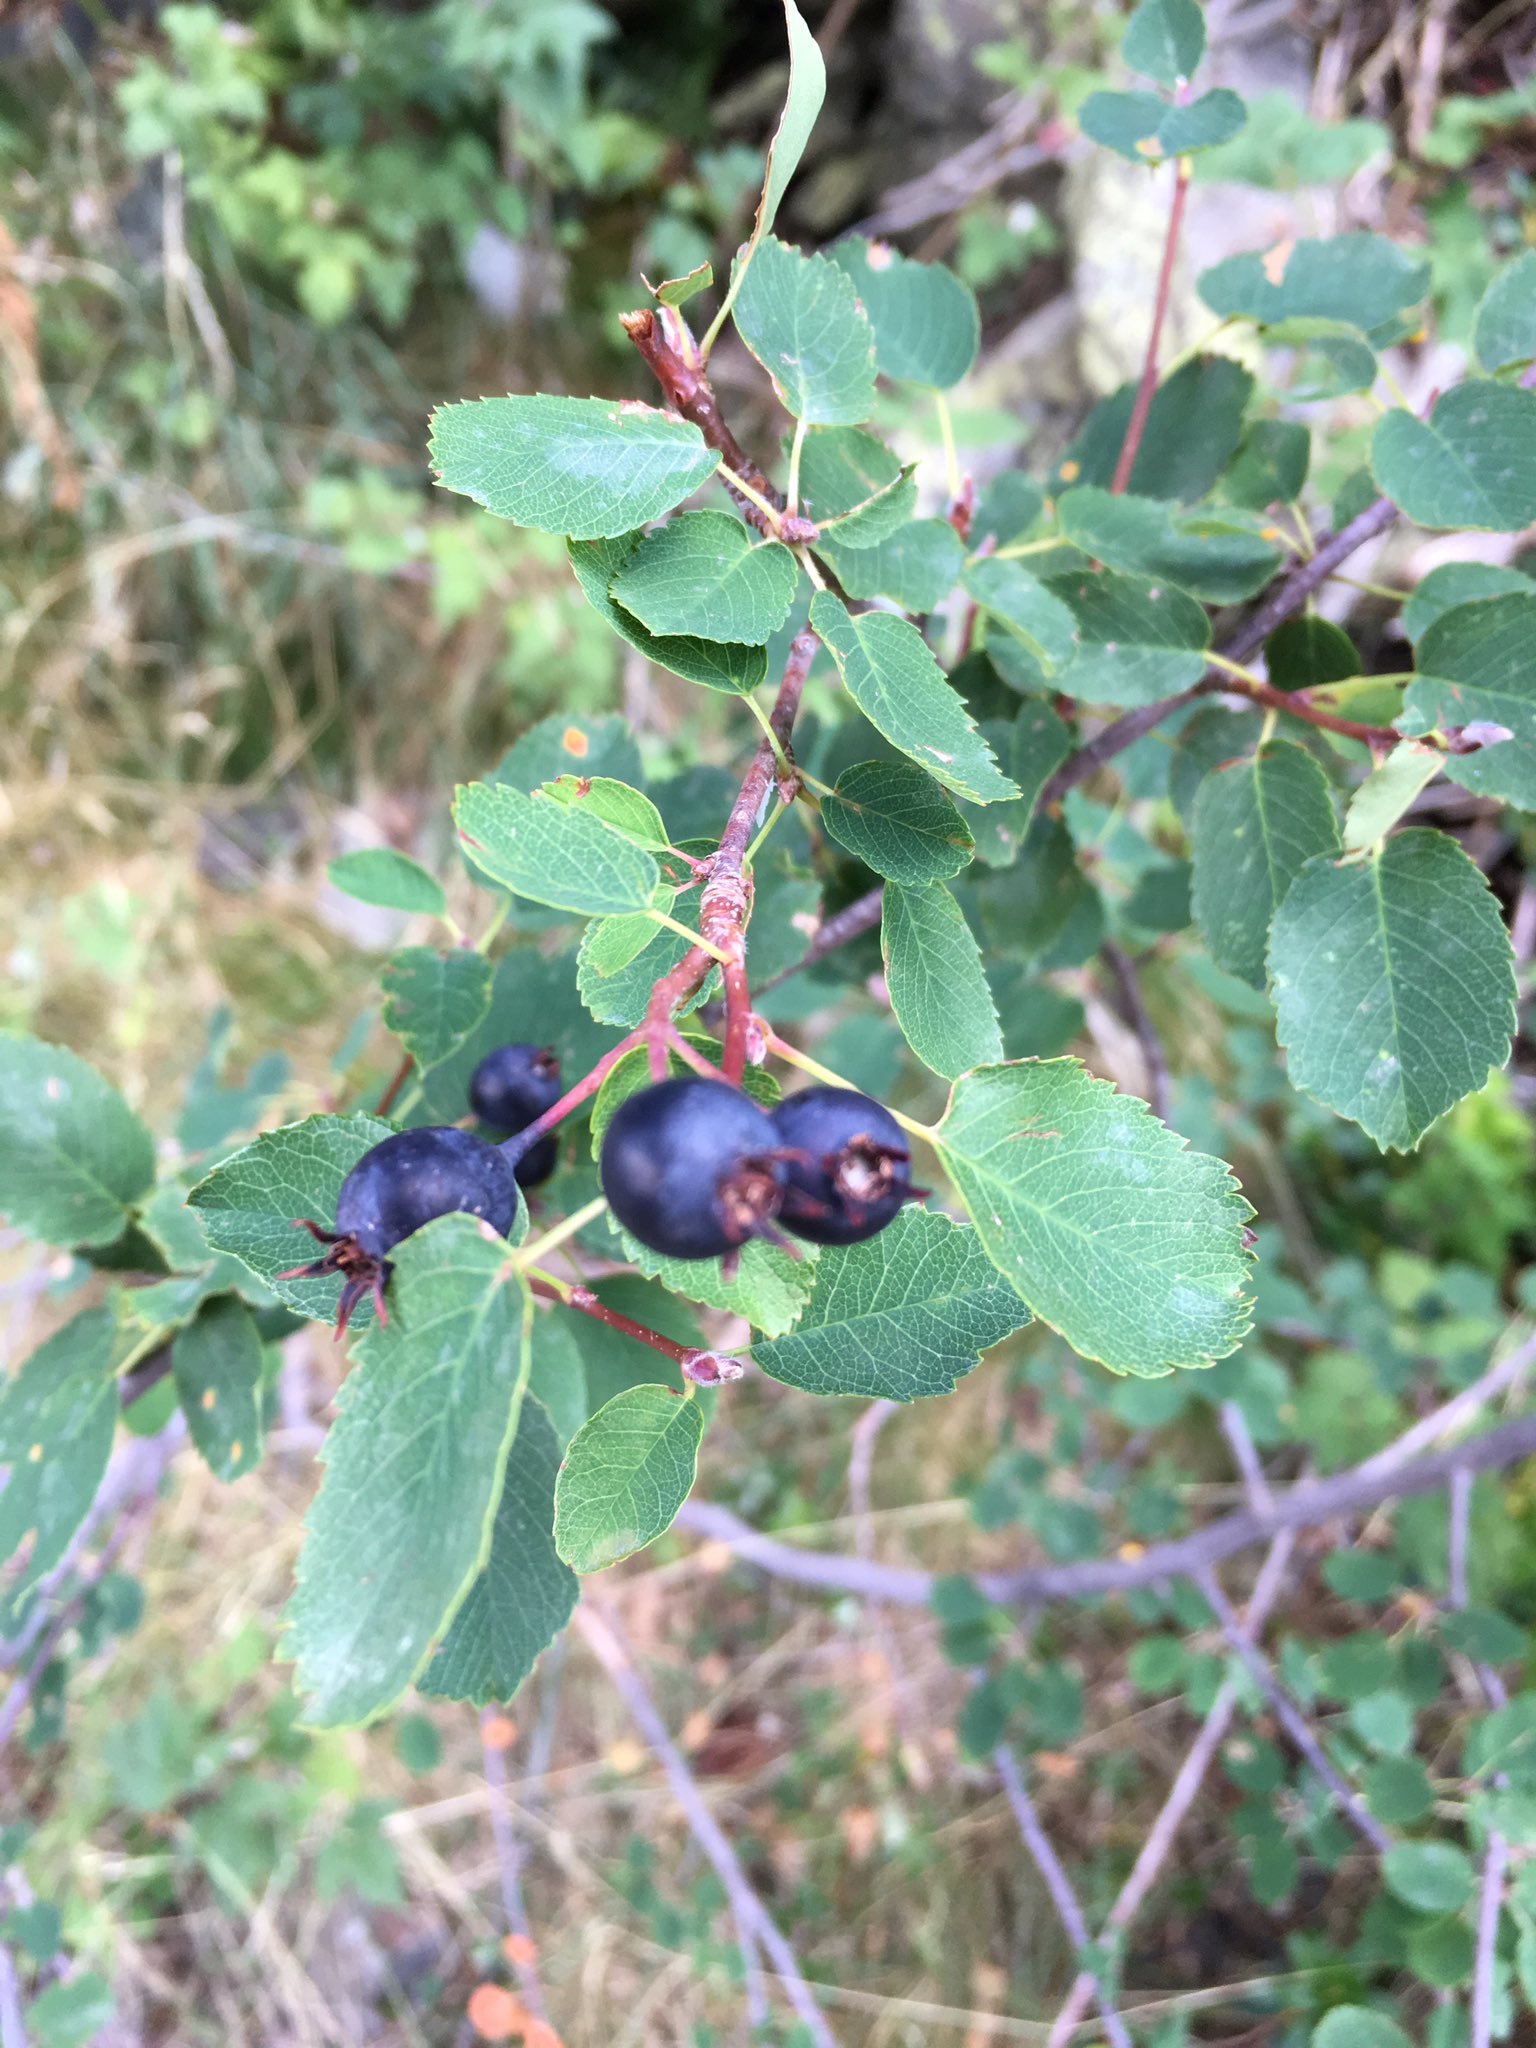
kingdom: Plantae
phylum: Tracheophyta
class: Magnoliopsida
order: Rosales
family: Rosaceae
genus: Amelanchier
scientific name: Amelanchier ovalis
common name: Serviceberry
